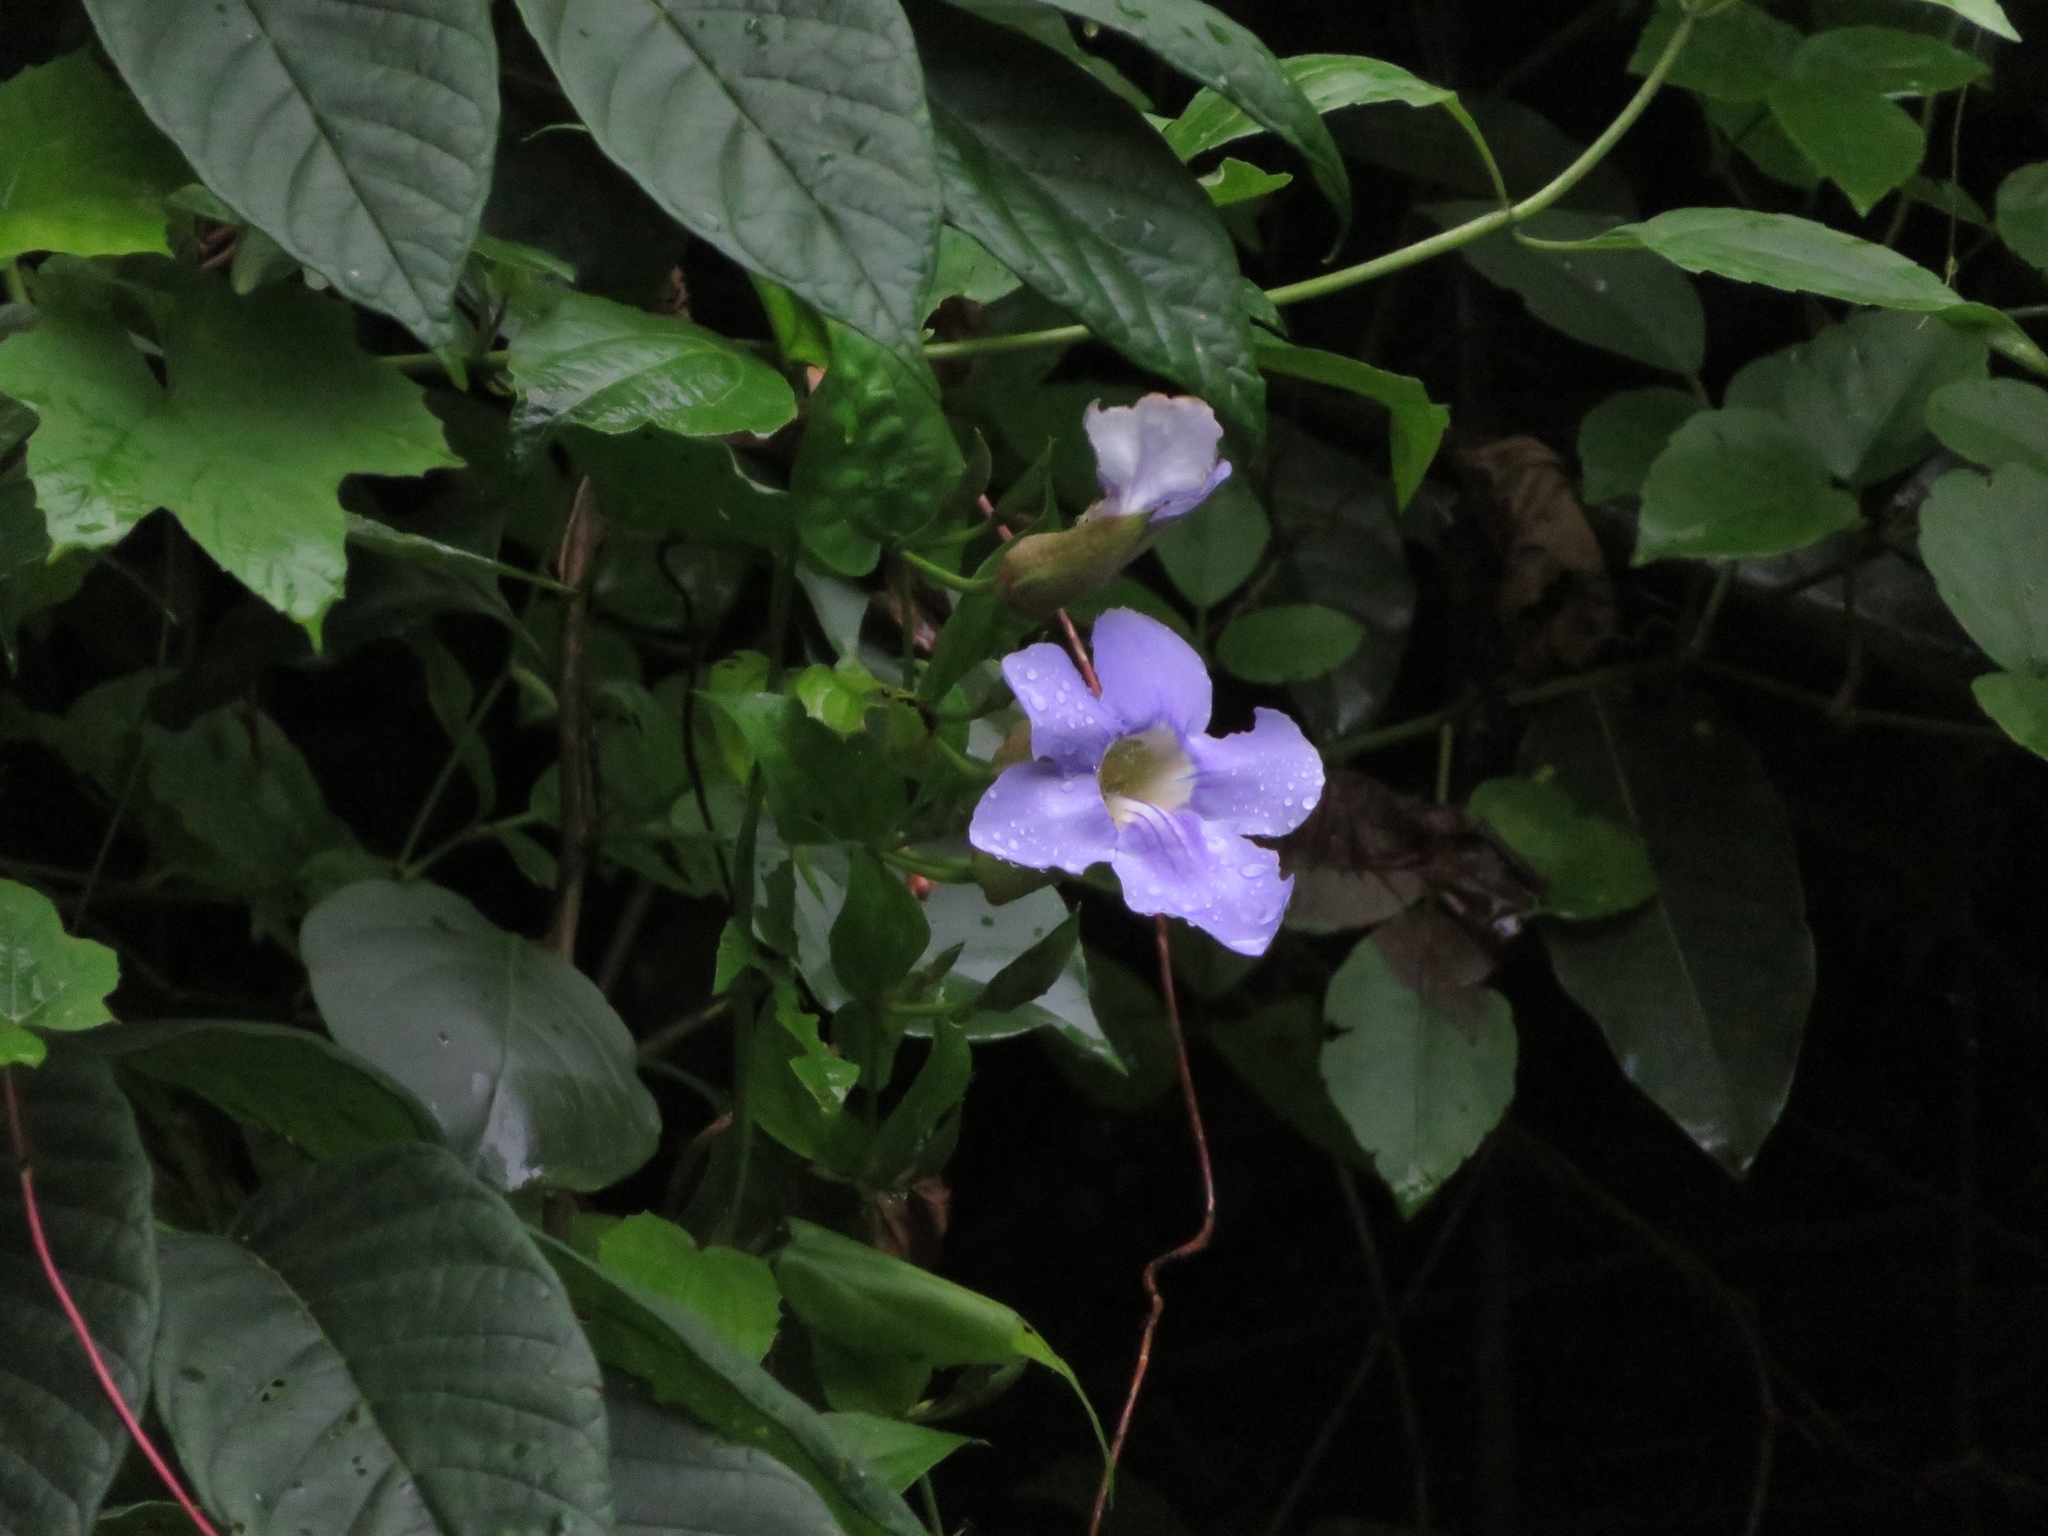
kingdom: Plantae
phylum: Tracheophyta
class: Magnoliopsida
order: Lamiales
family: Acanthaceae
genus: Thunbergia
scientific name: Thunbergia grandiflora
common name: Bengal trumpet
